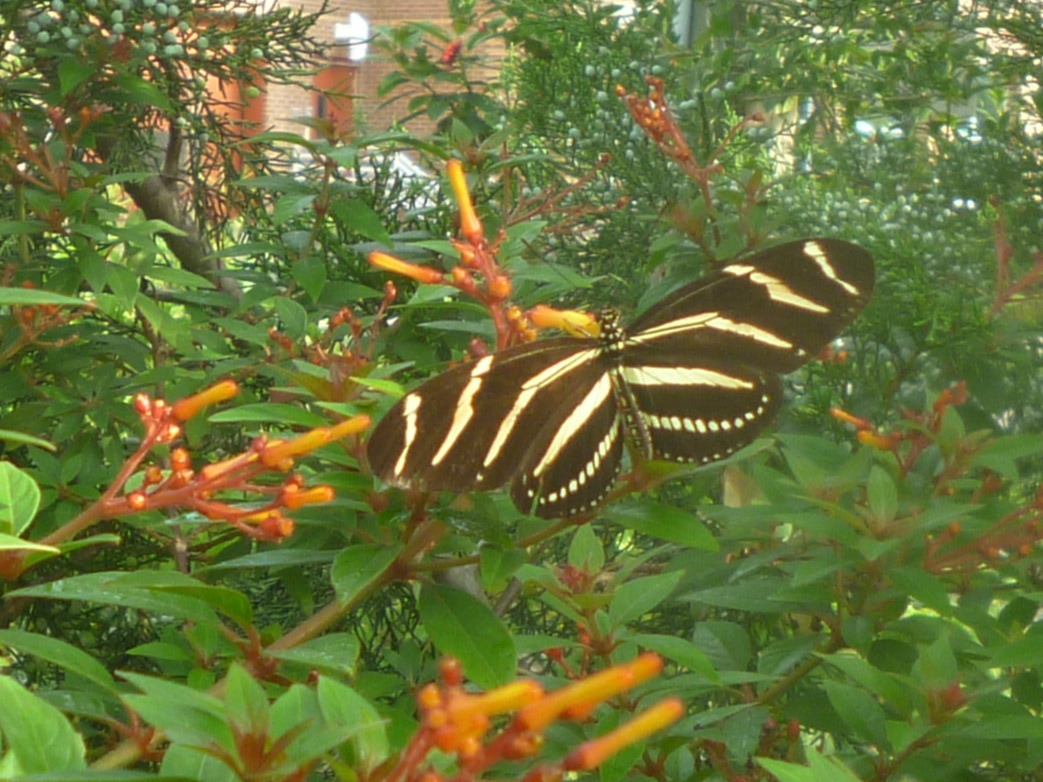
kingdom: Animalia
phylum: Arthropoda
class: Insecta
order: Lepidoptera
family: Nymphalidae
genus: Heliconius
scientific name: Heliconius charithonia
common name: Zebra long wing
